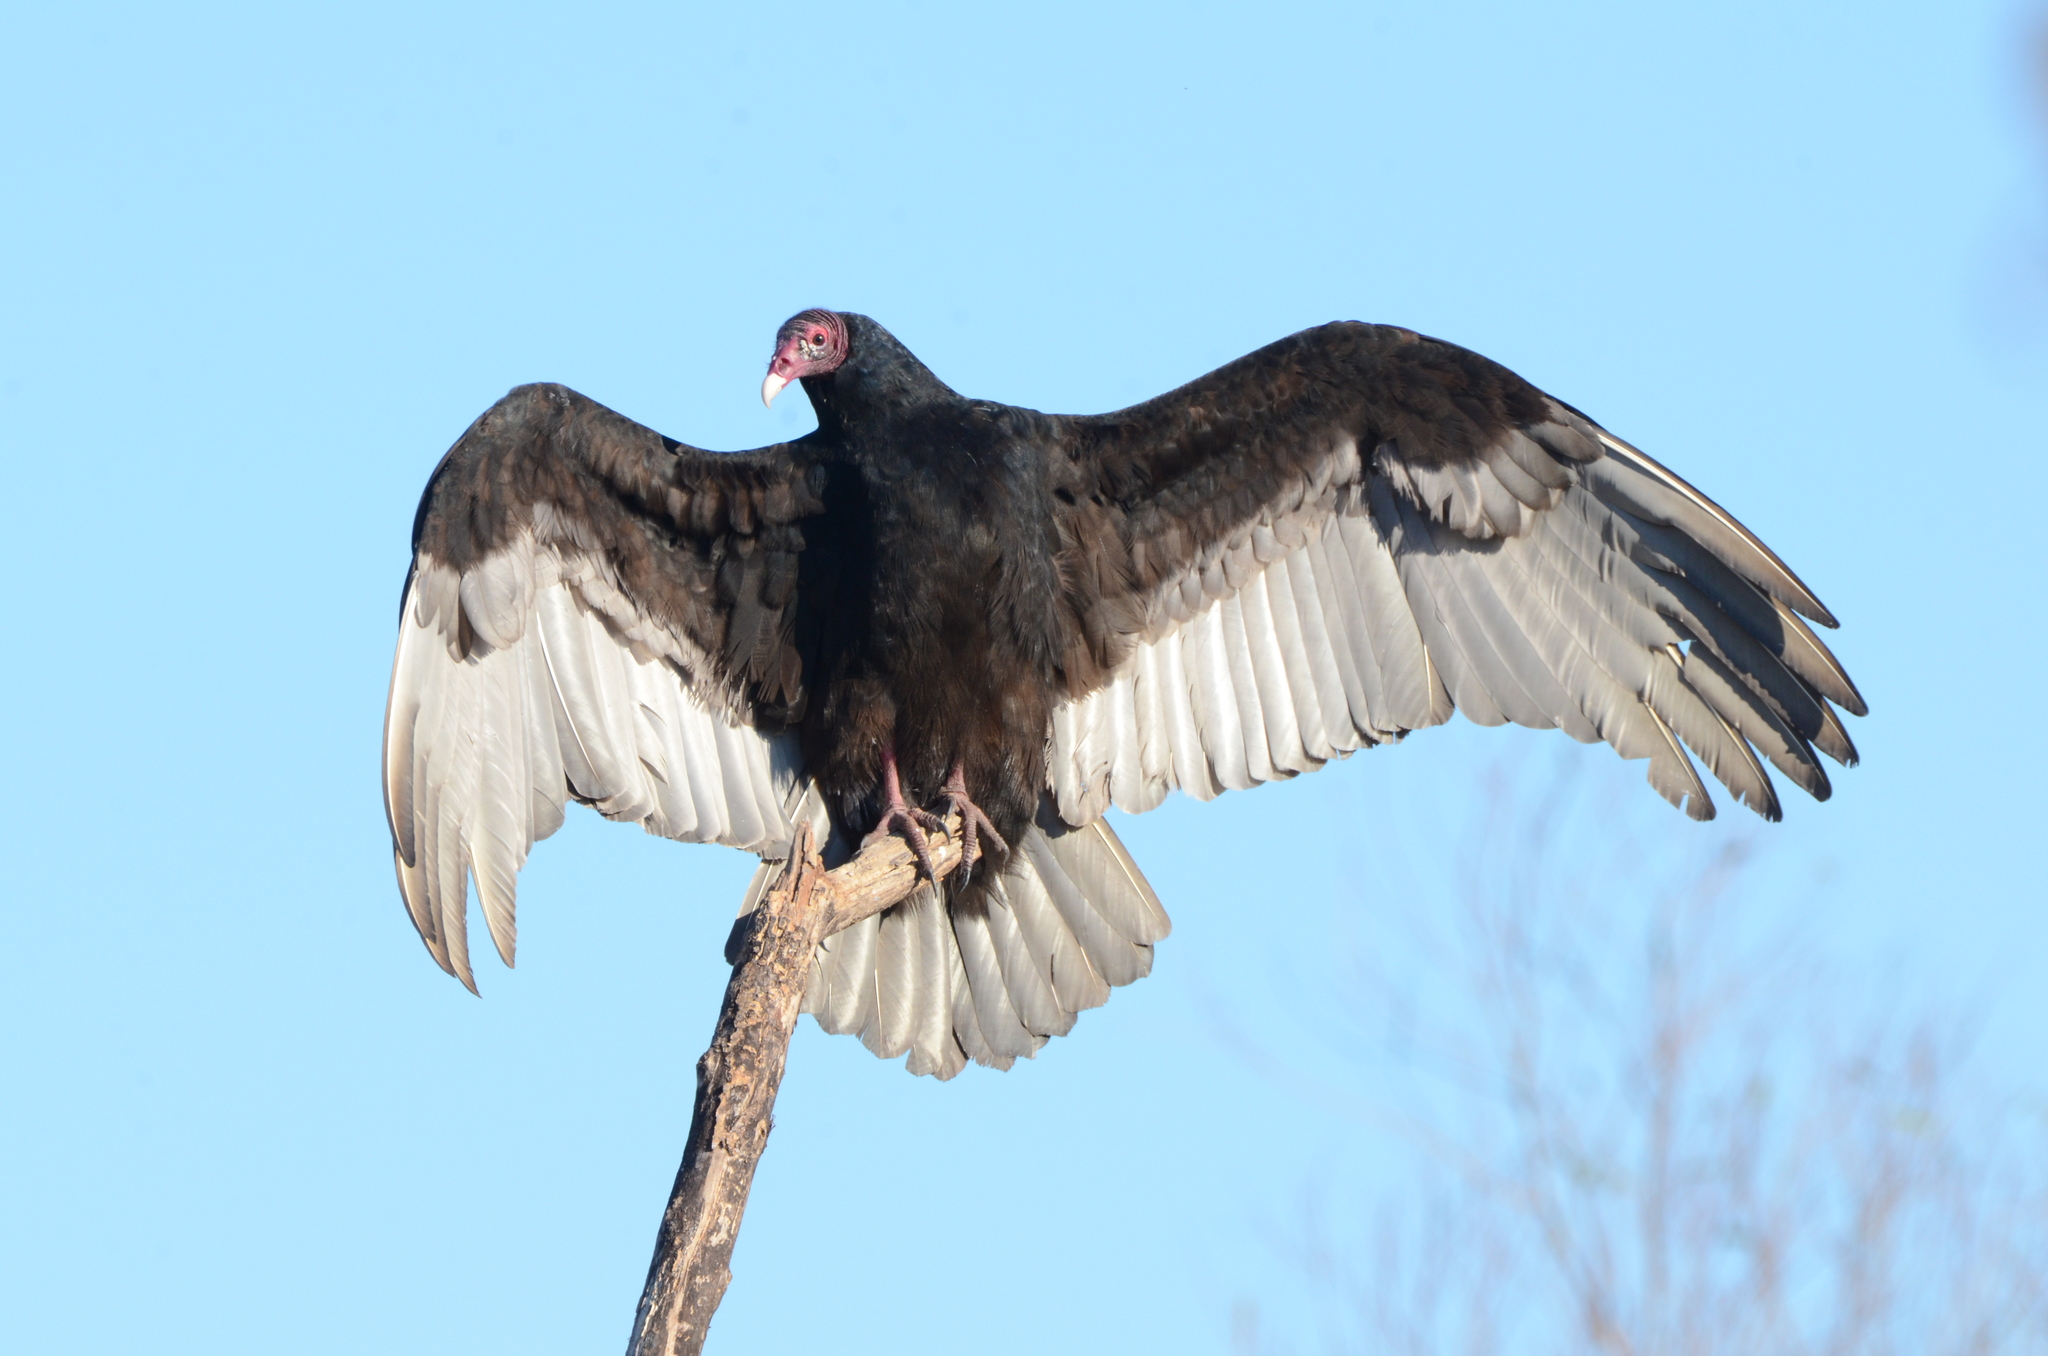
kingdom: Animalia
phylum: Chordata
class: Aves
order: Accipitriformes
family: Cathartidae
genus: Cathartes
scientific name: Cathartes aura
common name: Turkey vulture
